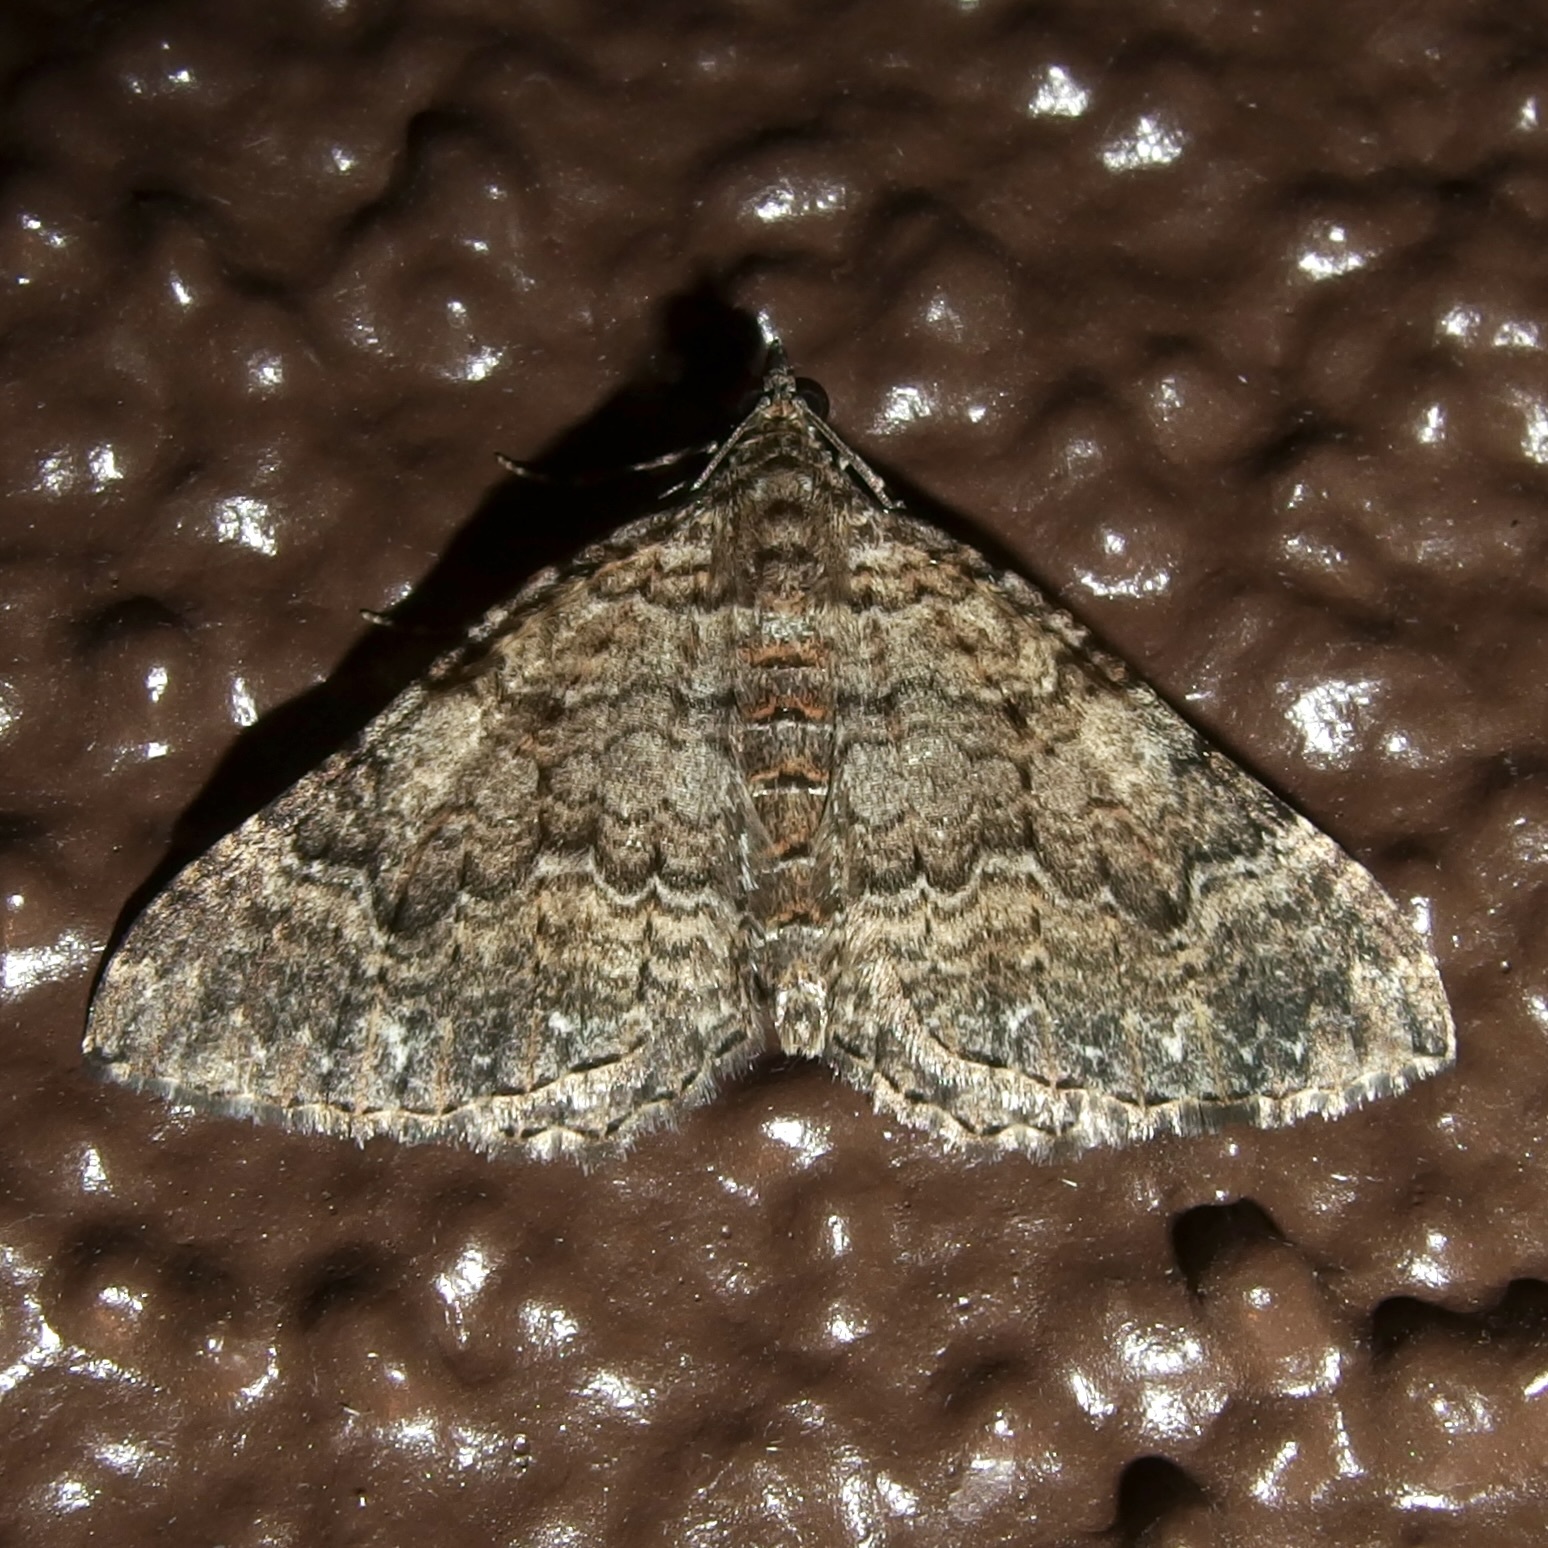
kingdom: Animalia
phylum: Arthropoda
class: Insecta
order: Lepidoptera
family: Geometridae
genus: Archirhoe
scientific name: Archirhoe neomexicana
